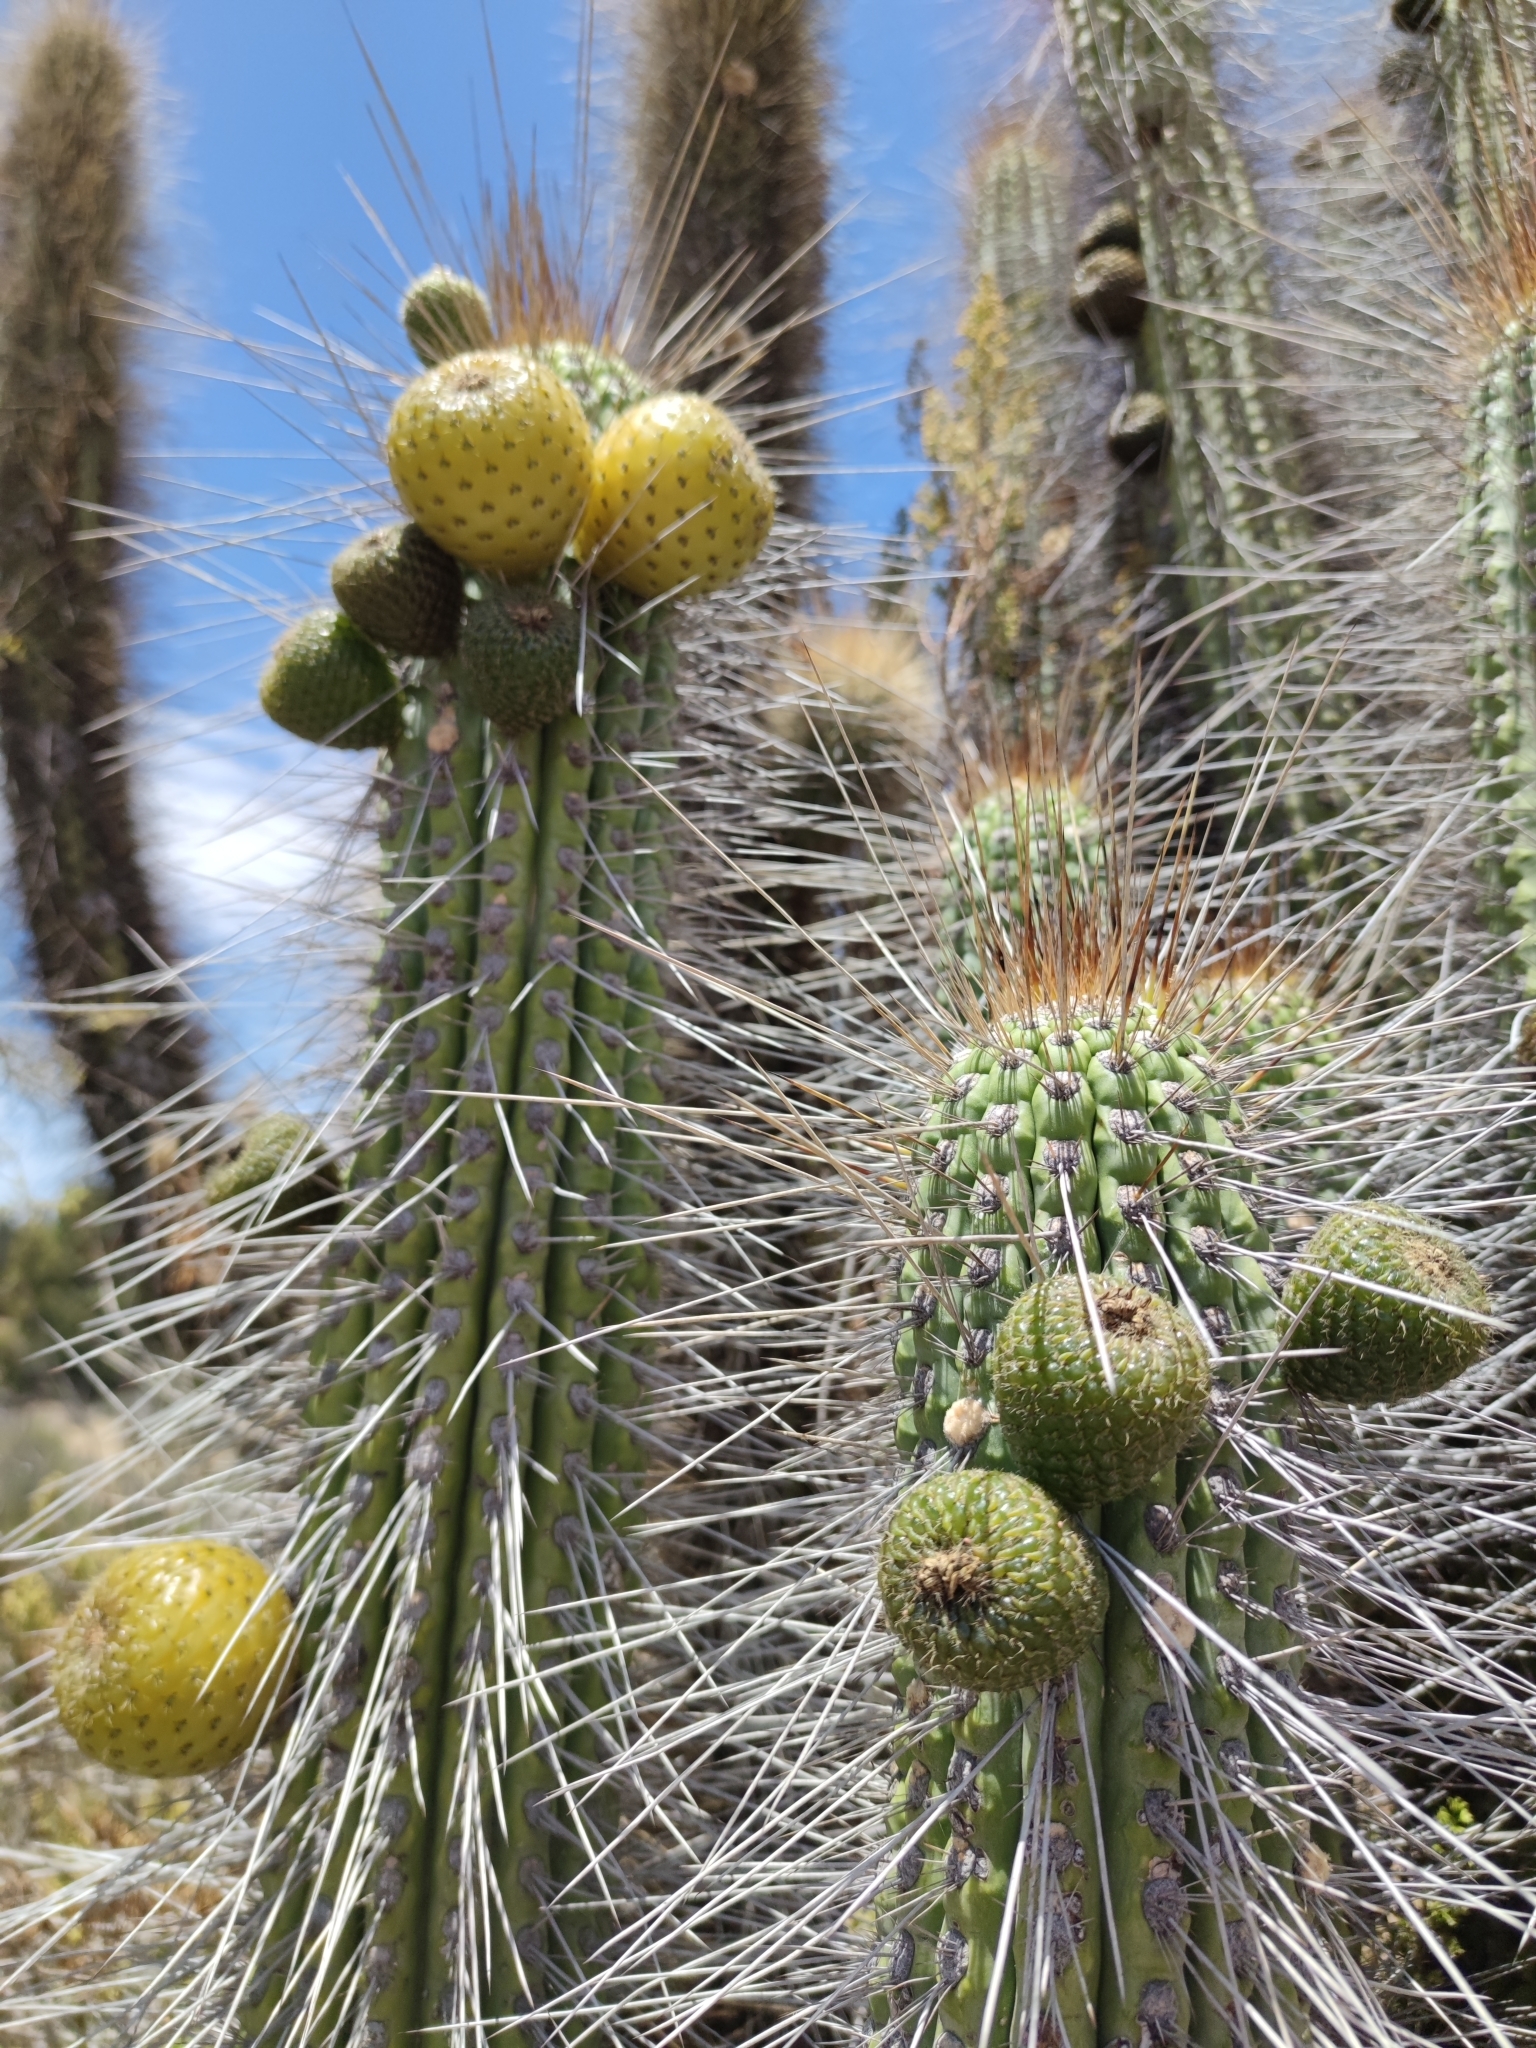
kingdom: Plantae
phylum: Tracheophyta
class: Magnoliopsida
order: Caryophyllales
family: Cactaceae
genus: Eulychnia
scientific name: Eulychnia acida
